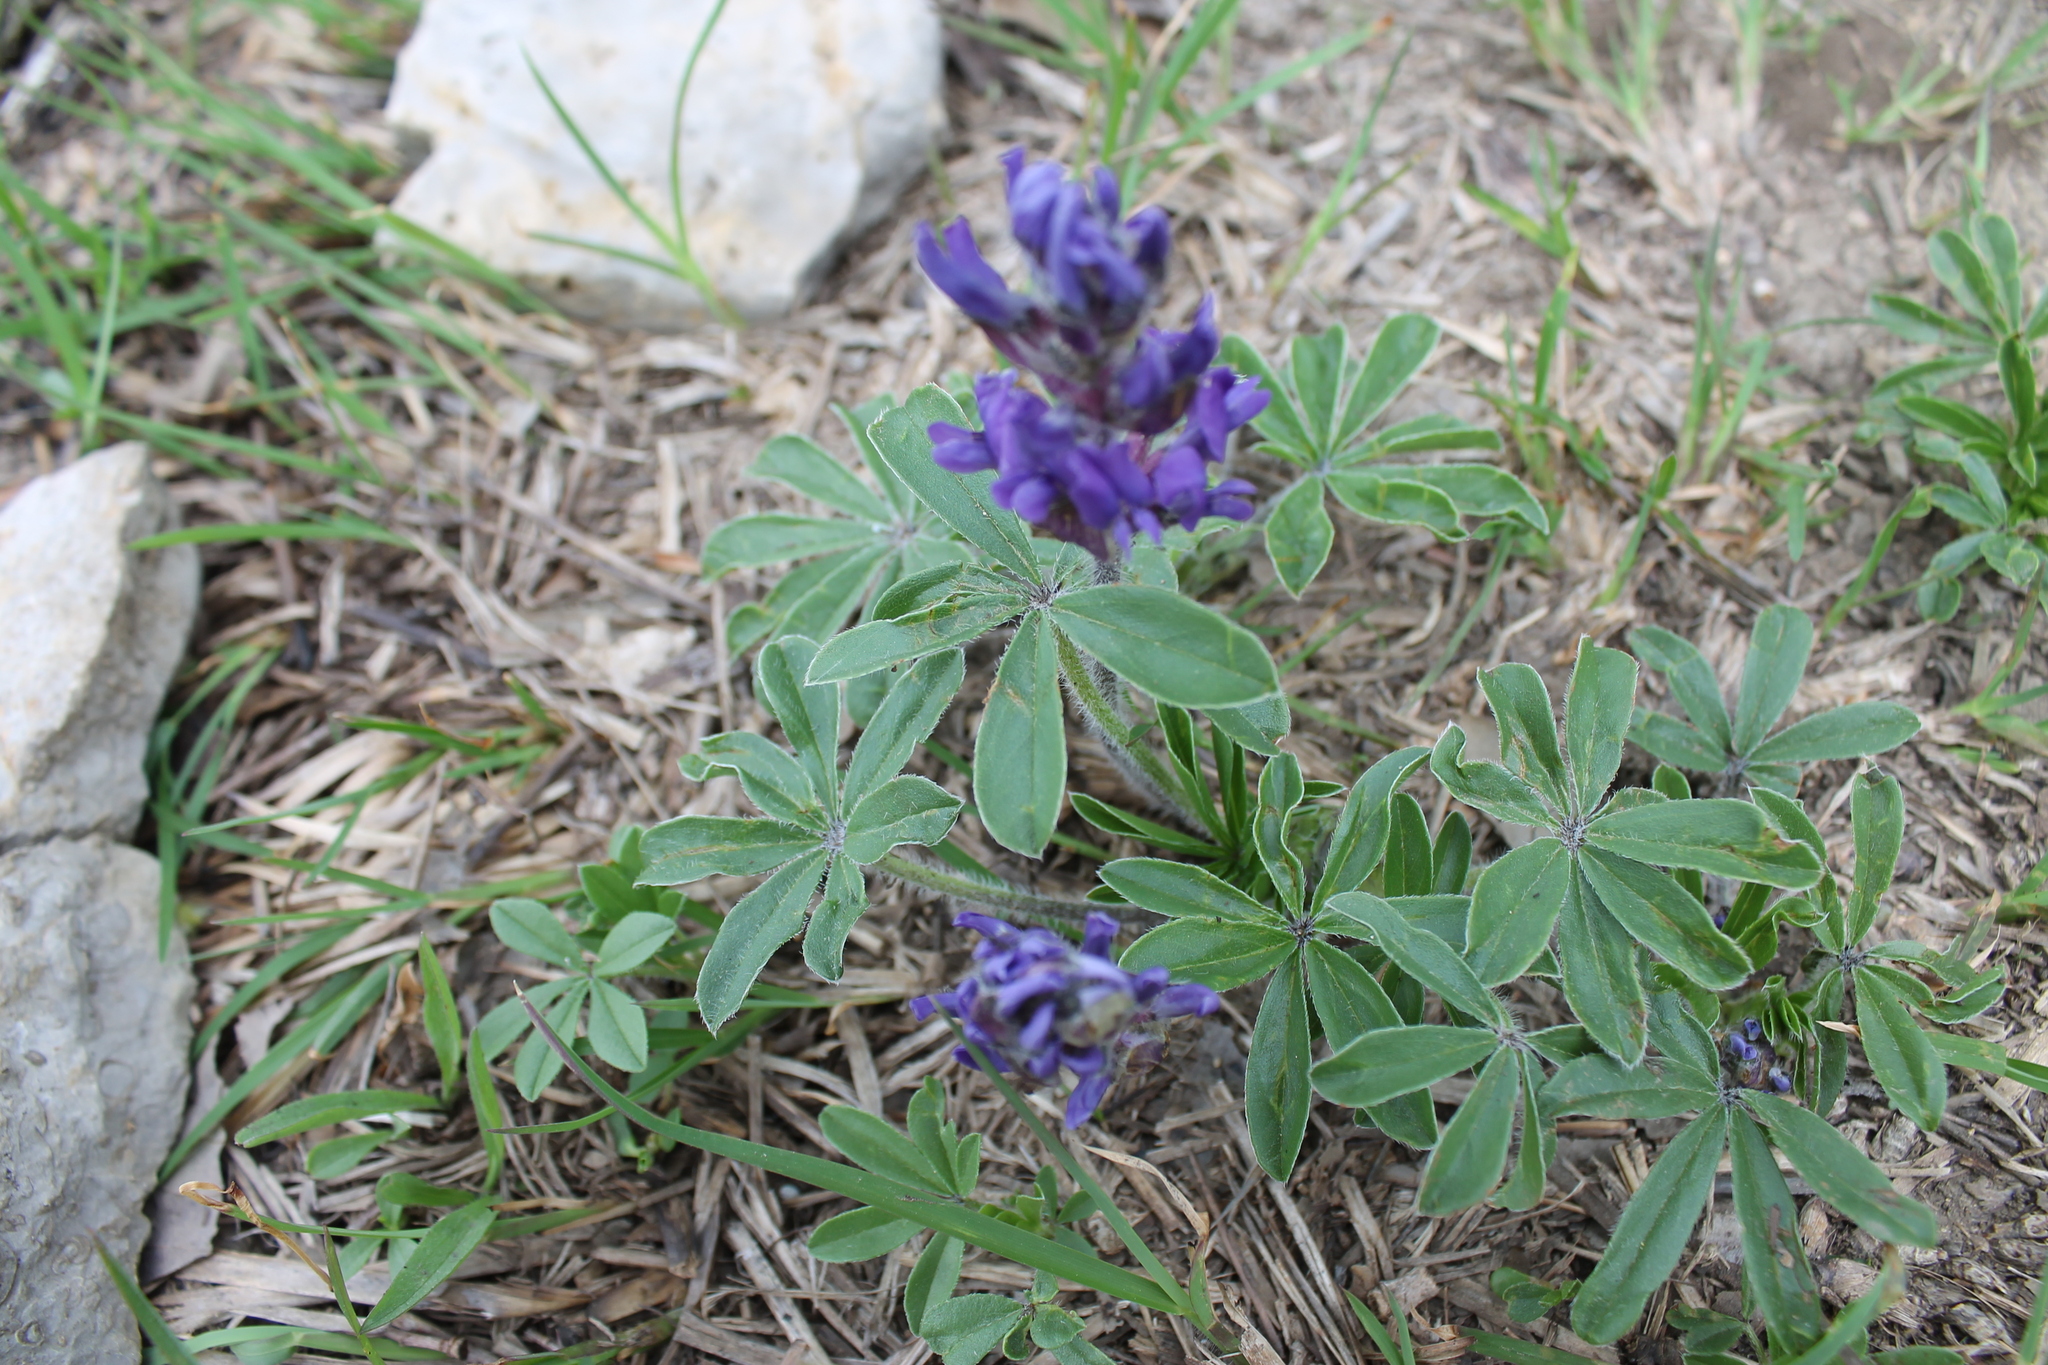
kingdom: Plantae
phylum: Tracheophyta
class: Magnoliopsida
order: Fabales
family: Fabaceae
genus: Pediomelum
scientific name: Pediomelum subacaule
